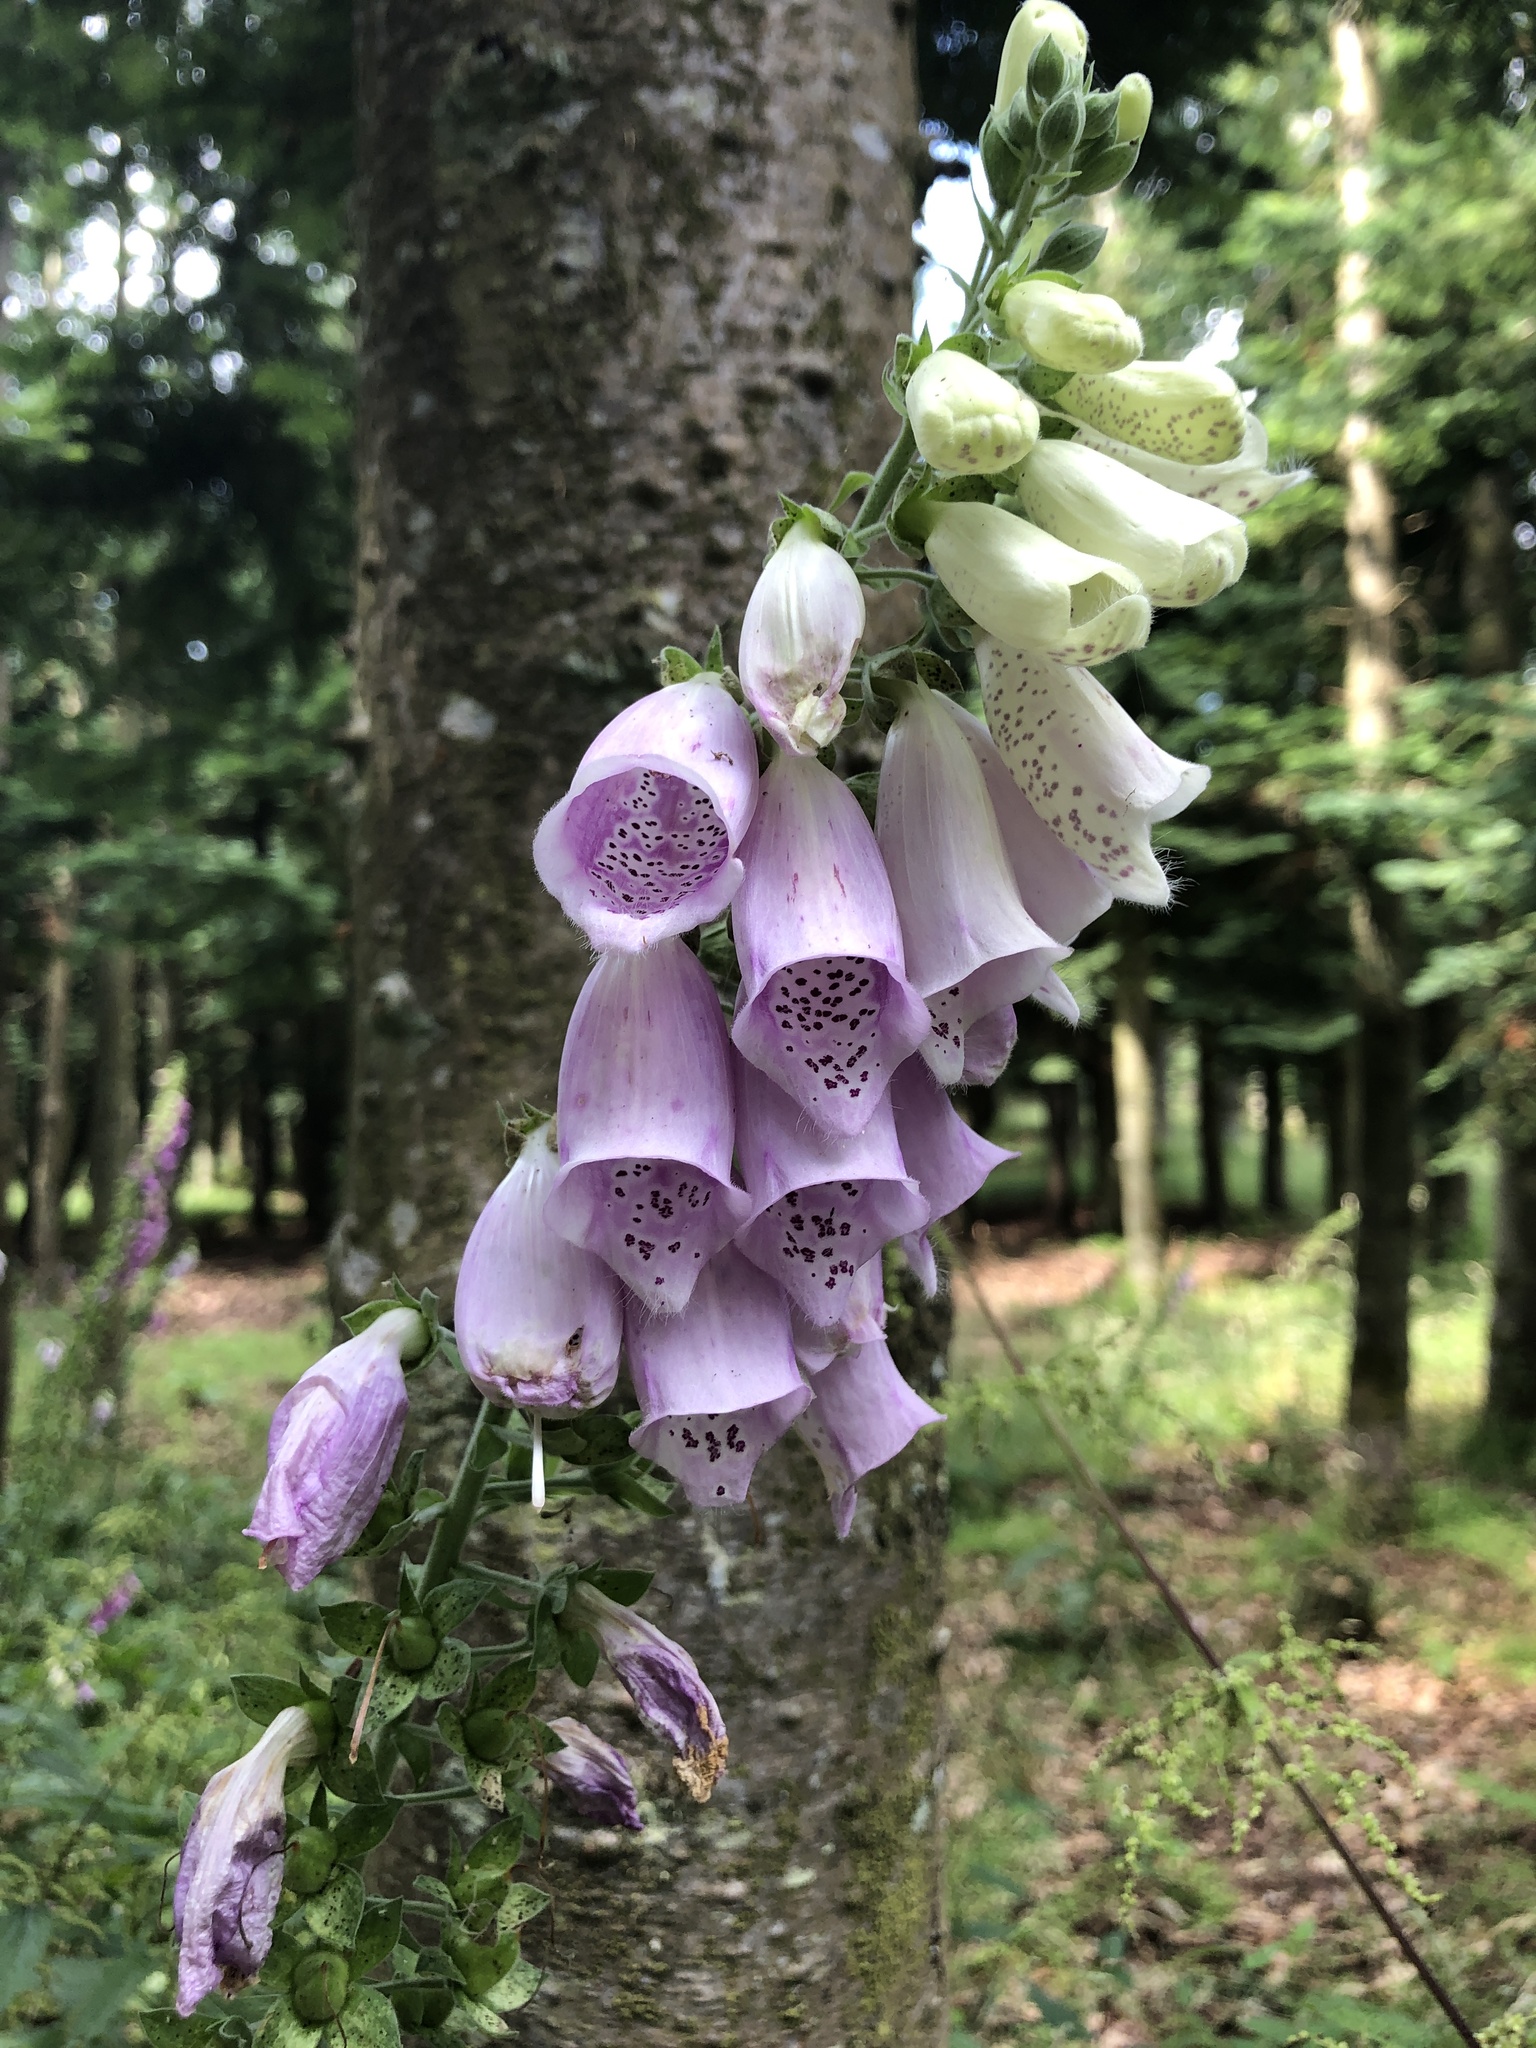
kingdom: Plantae
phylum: Tracheophyta
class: Magnoliopsida
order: Lamiales
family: Plantaginaceae
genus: Digitalis
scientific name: Digitalis purpurea
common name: Foxglove
